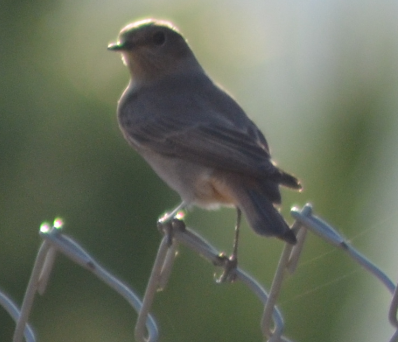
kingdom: Animalia
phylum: Chordata
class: Aves
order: Passeriformes
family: Muscicapidae
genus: Phoenicurus
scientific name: Phoenicurus ochruros
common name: Black redstart
